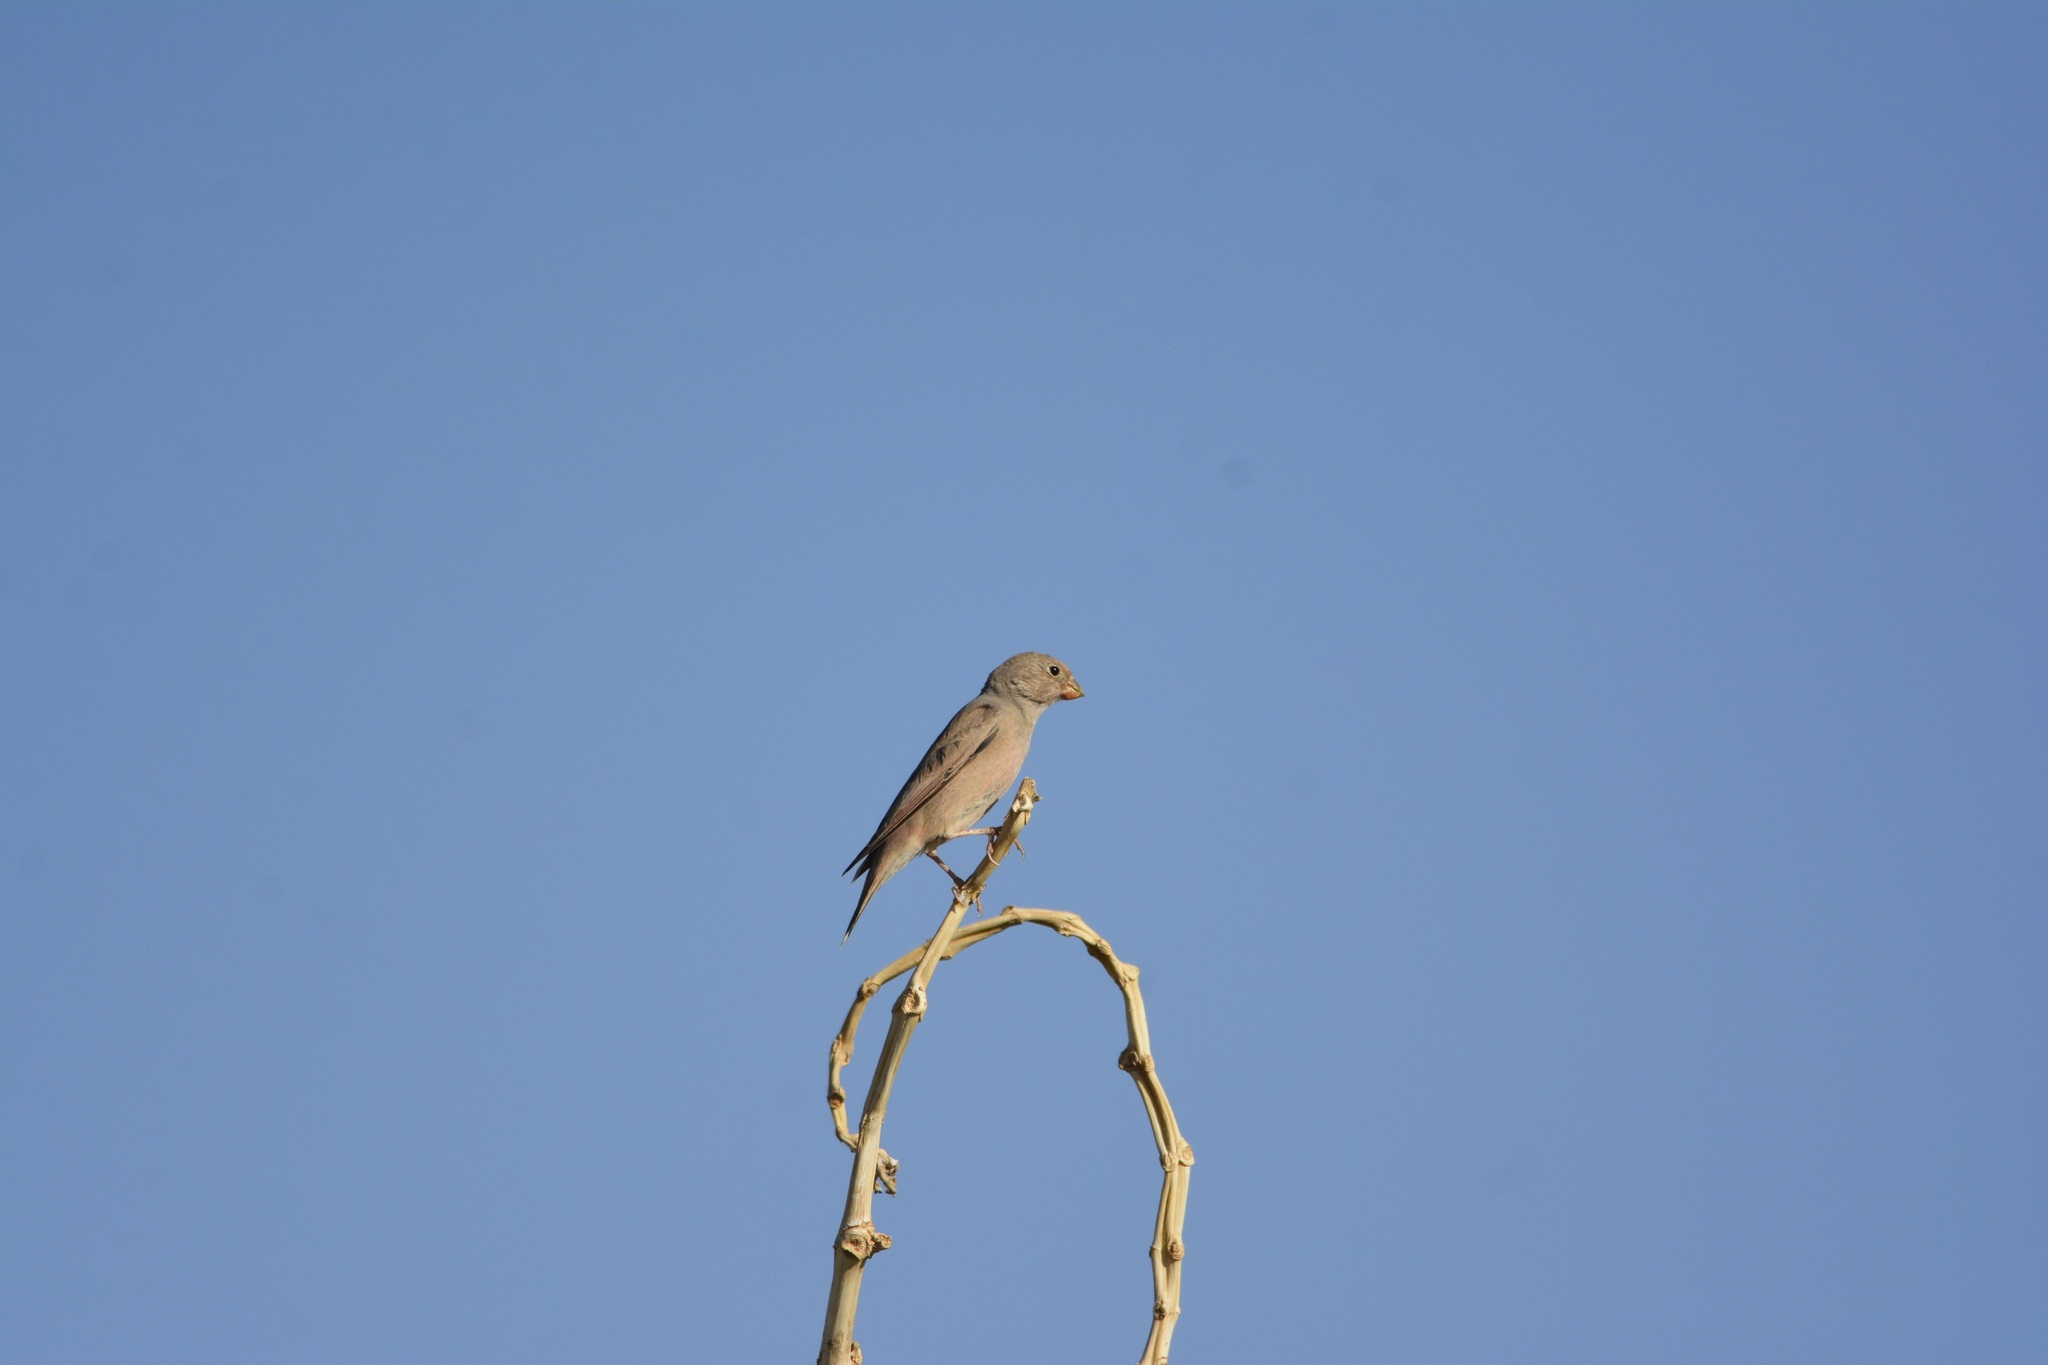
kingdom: Animalia
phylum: Chordata
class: Aves
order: Passeriformes
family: Fringillidae
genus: Bucanetes
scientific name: Bucanetes githagineus
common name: Trumpeter finch
